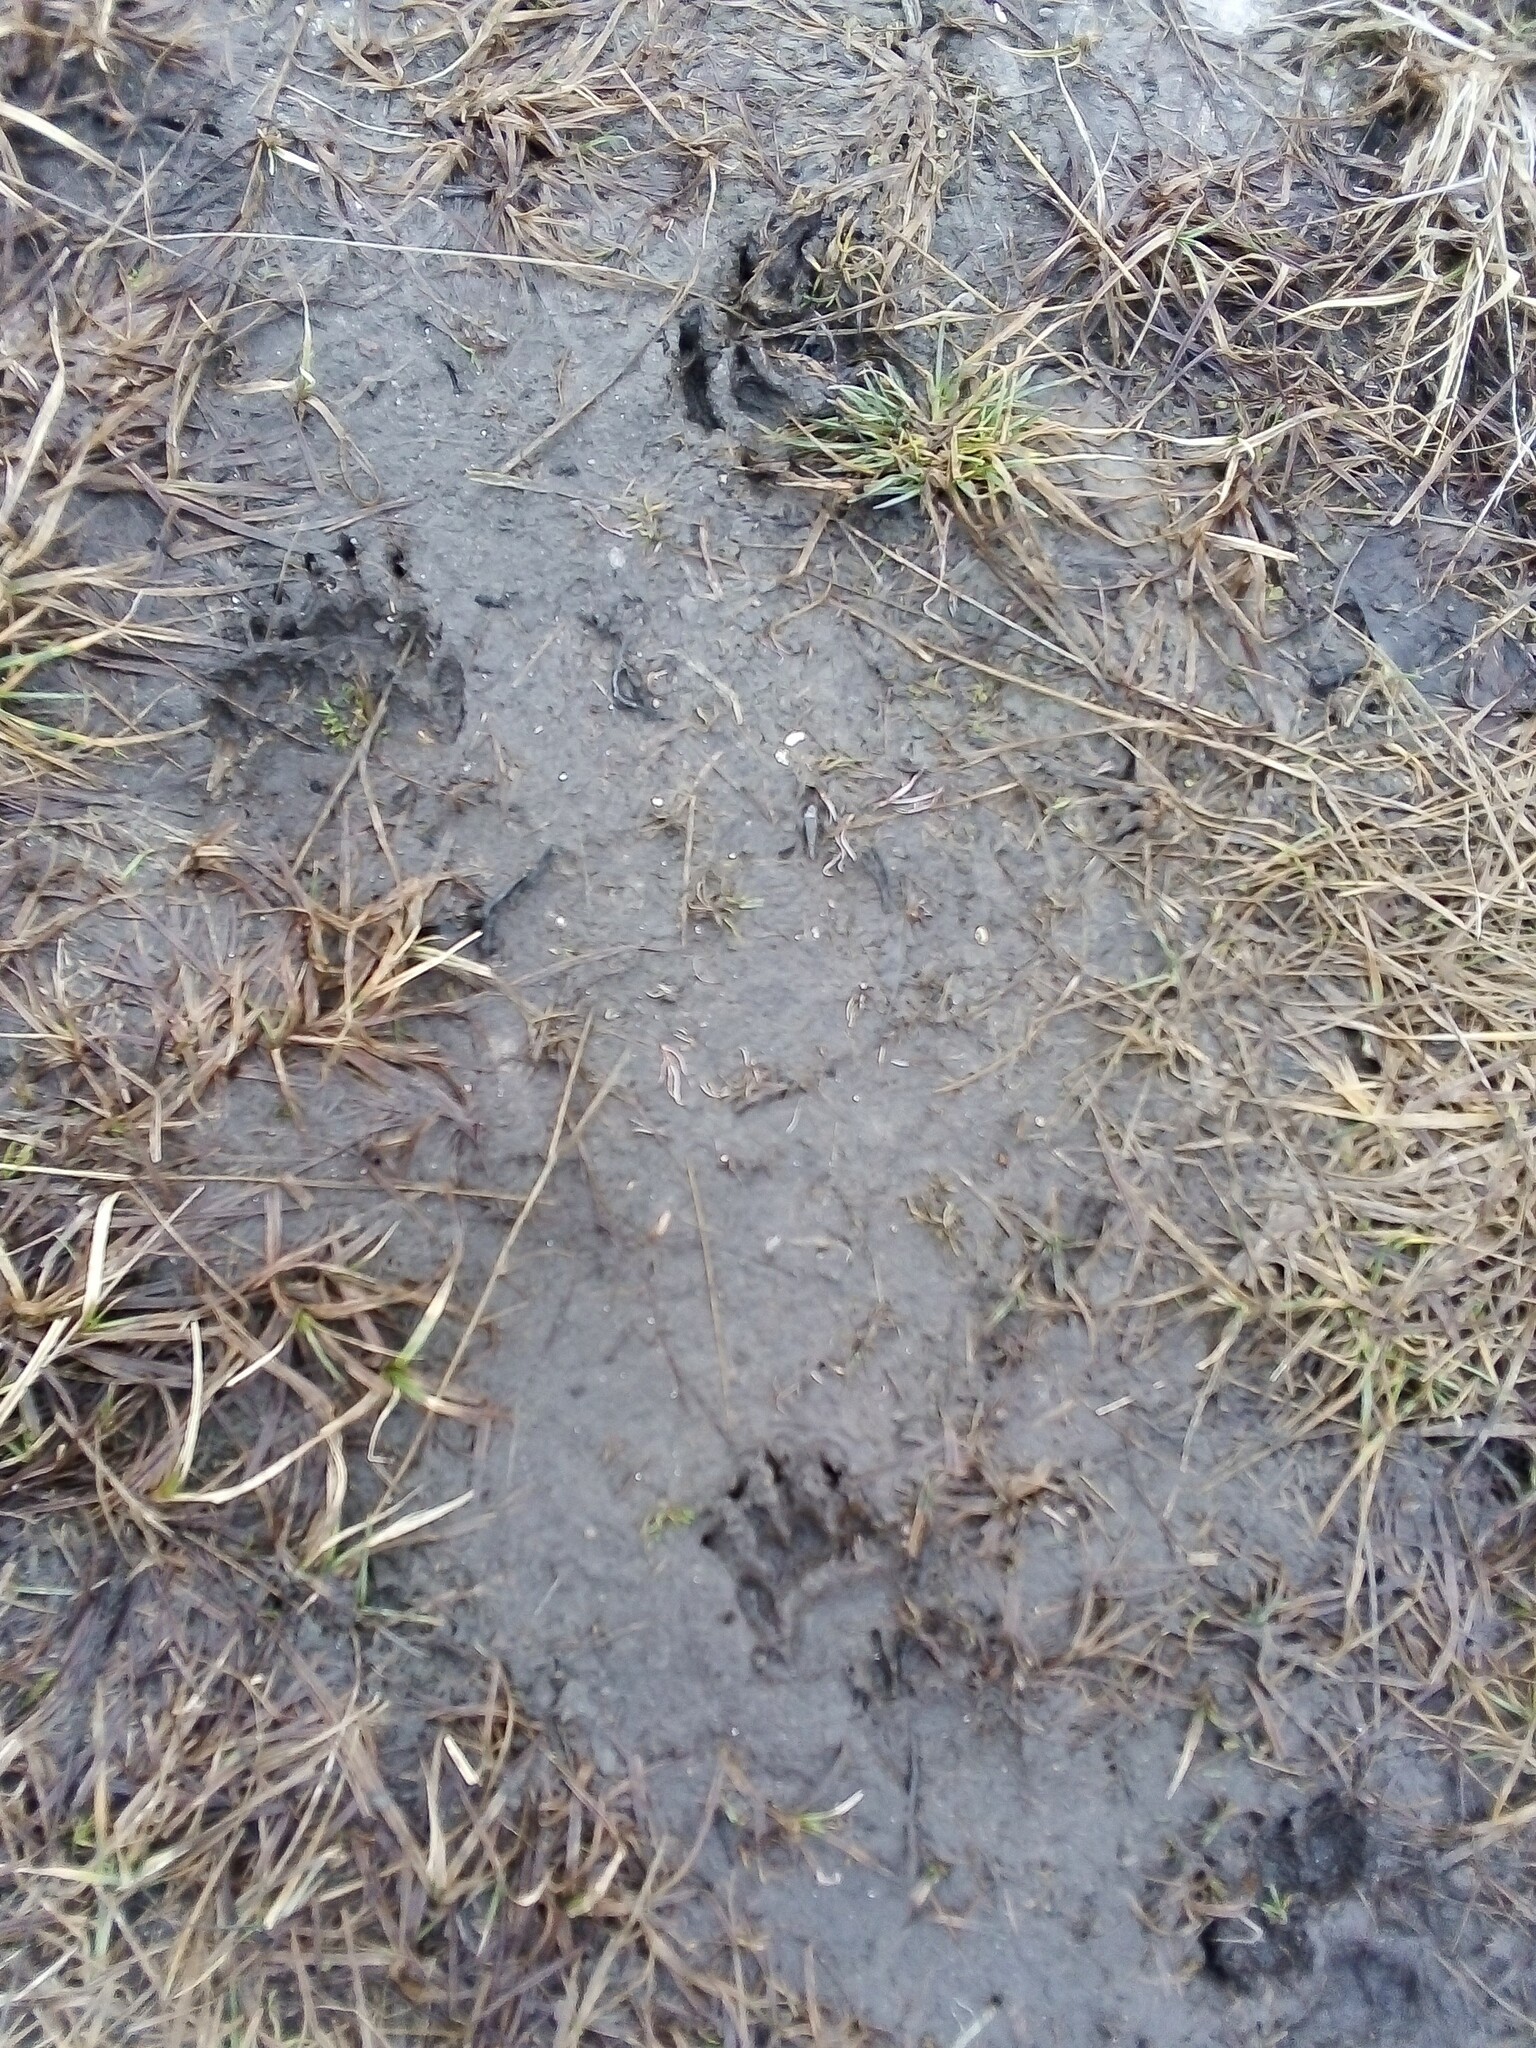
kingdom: Animalia
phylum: Chordata
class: Mammalia
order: Carnivora
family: Mustelidae
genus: Meles
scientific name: Meles meles
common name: Eurasian badger
